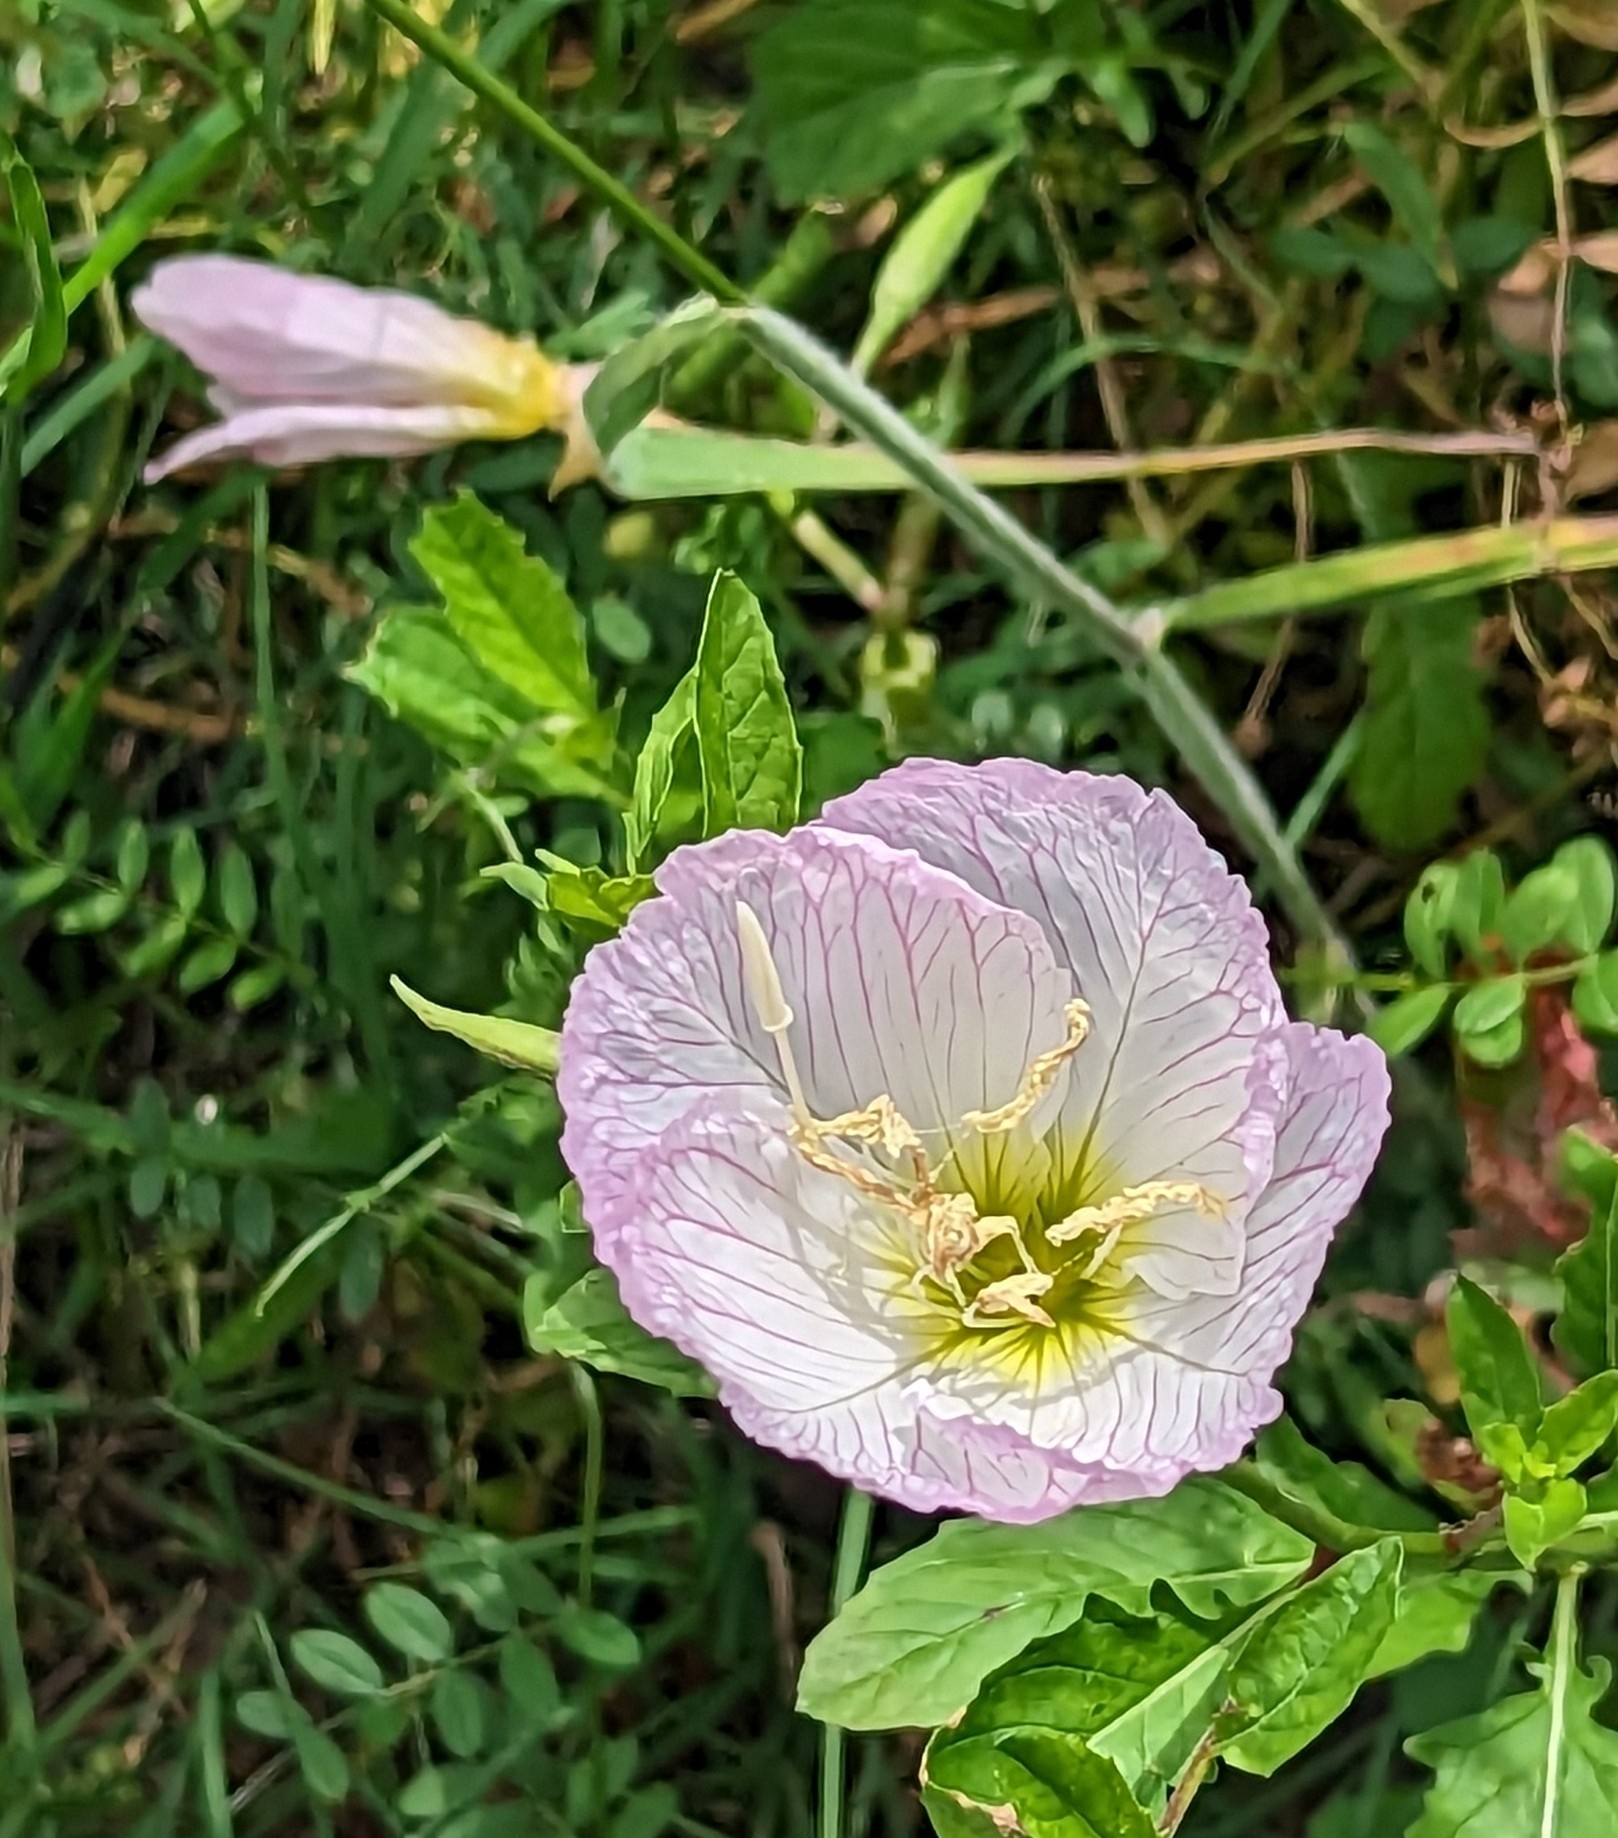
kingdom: Plantae
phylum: Tracheophyta
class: Magnoliopsida
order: Myrtales
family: Onagraceae
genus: Oenothera
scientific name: Oenothera speciosa
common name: White evening-primrose
